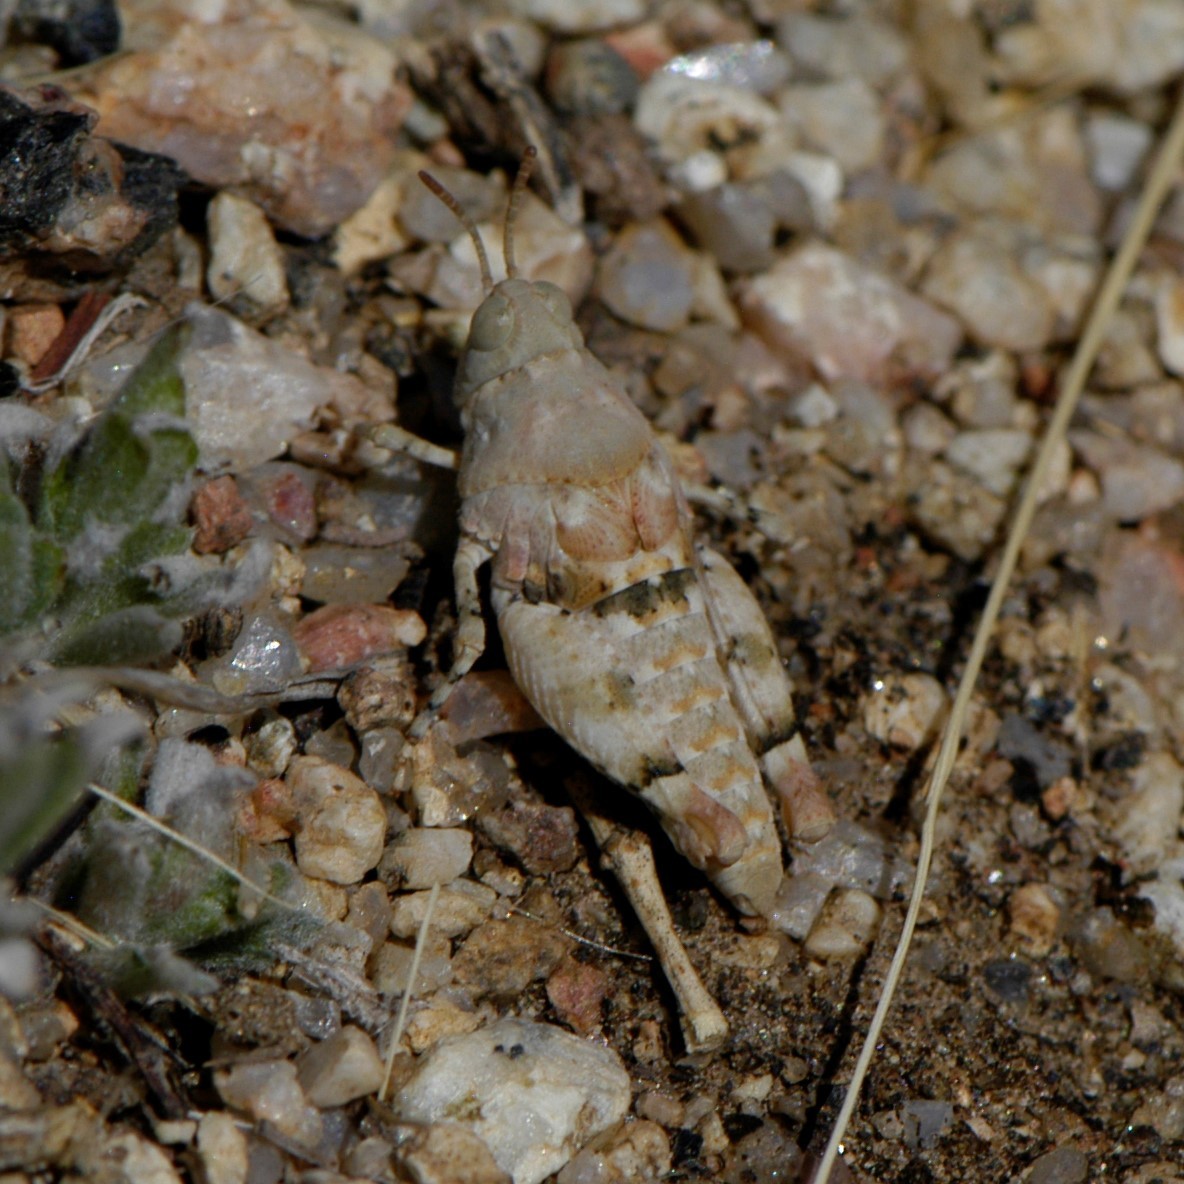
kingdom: Animalia
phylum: Arthropoda
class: Insecta
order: Orthoptera
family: Acrididae
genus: Cibolacris
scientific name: Cibolacris parviceps
